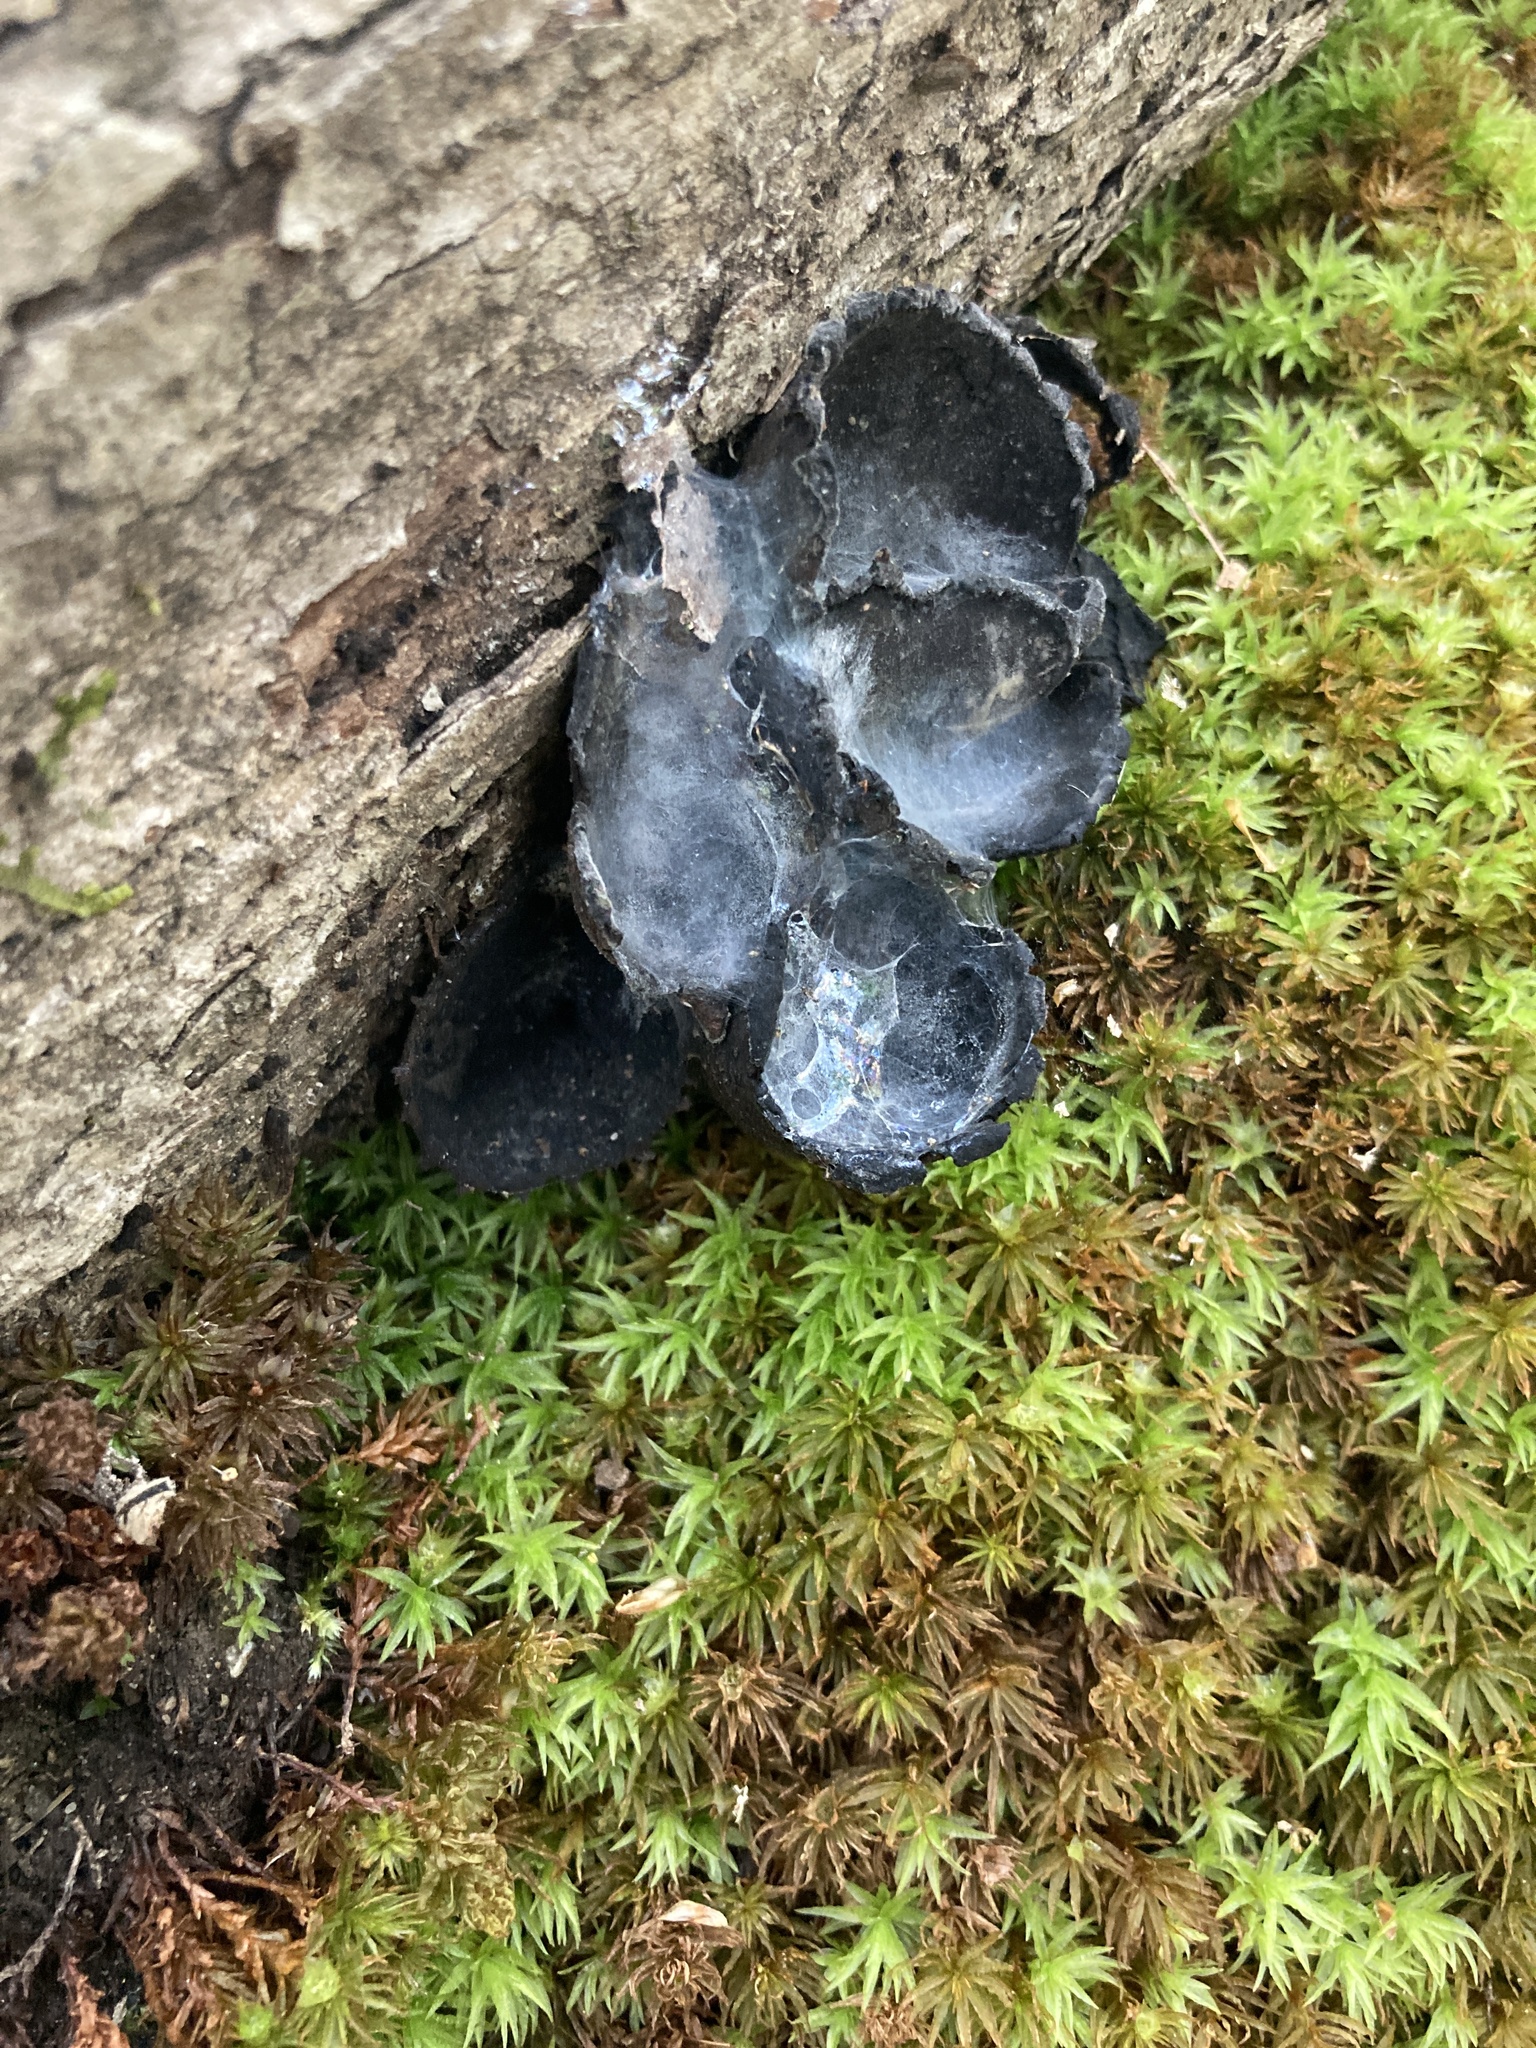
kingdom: Fungi
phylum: Ascomycota
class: Pezizomycetes
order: Pezizales
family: Sarcosomataceae
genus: Urnula
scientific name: Urnula craterium
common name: Devil's urn
